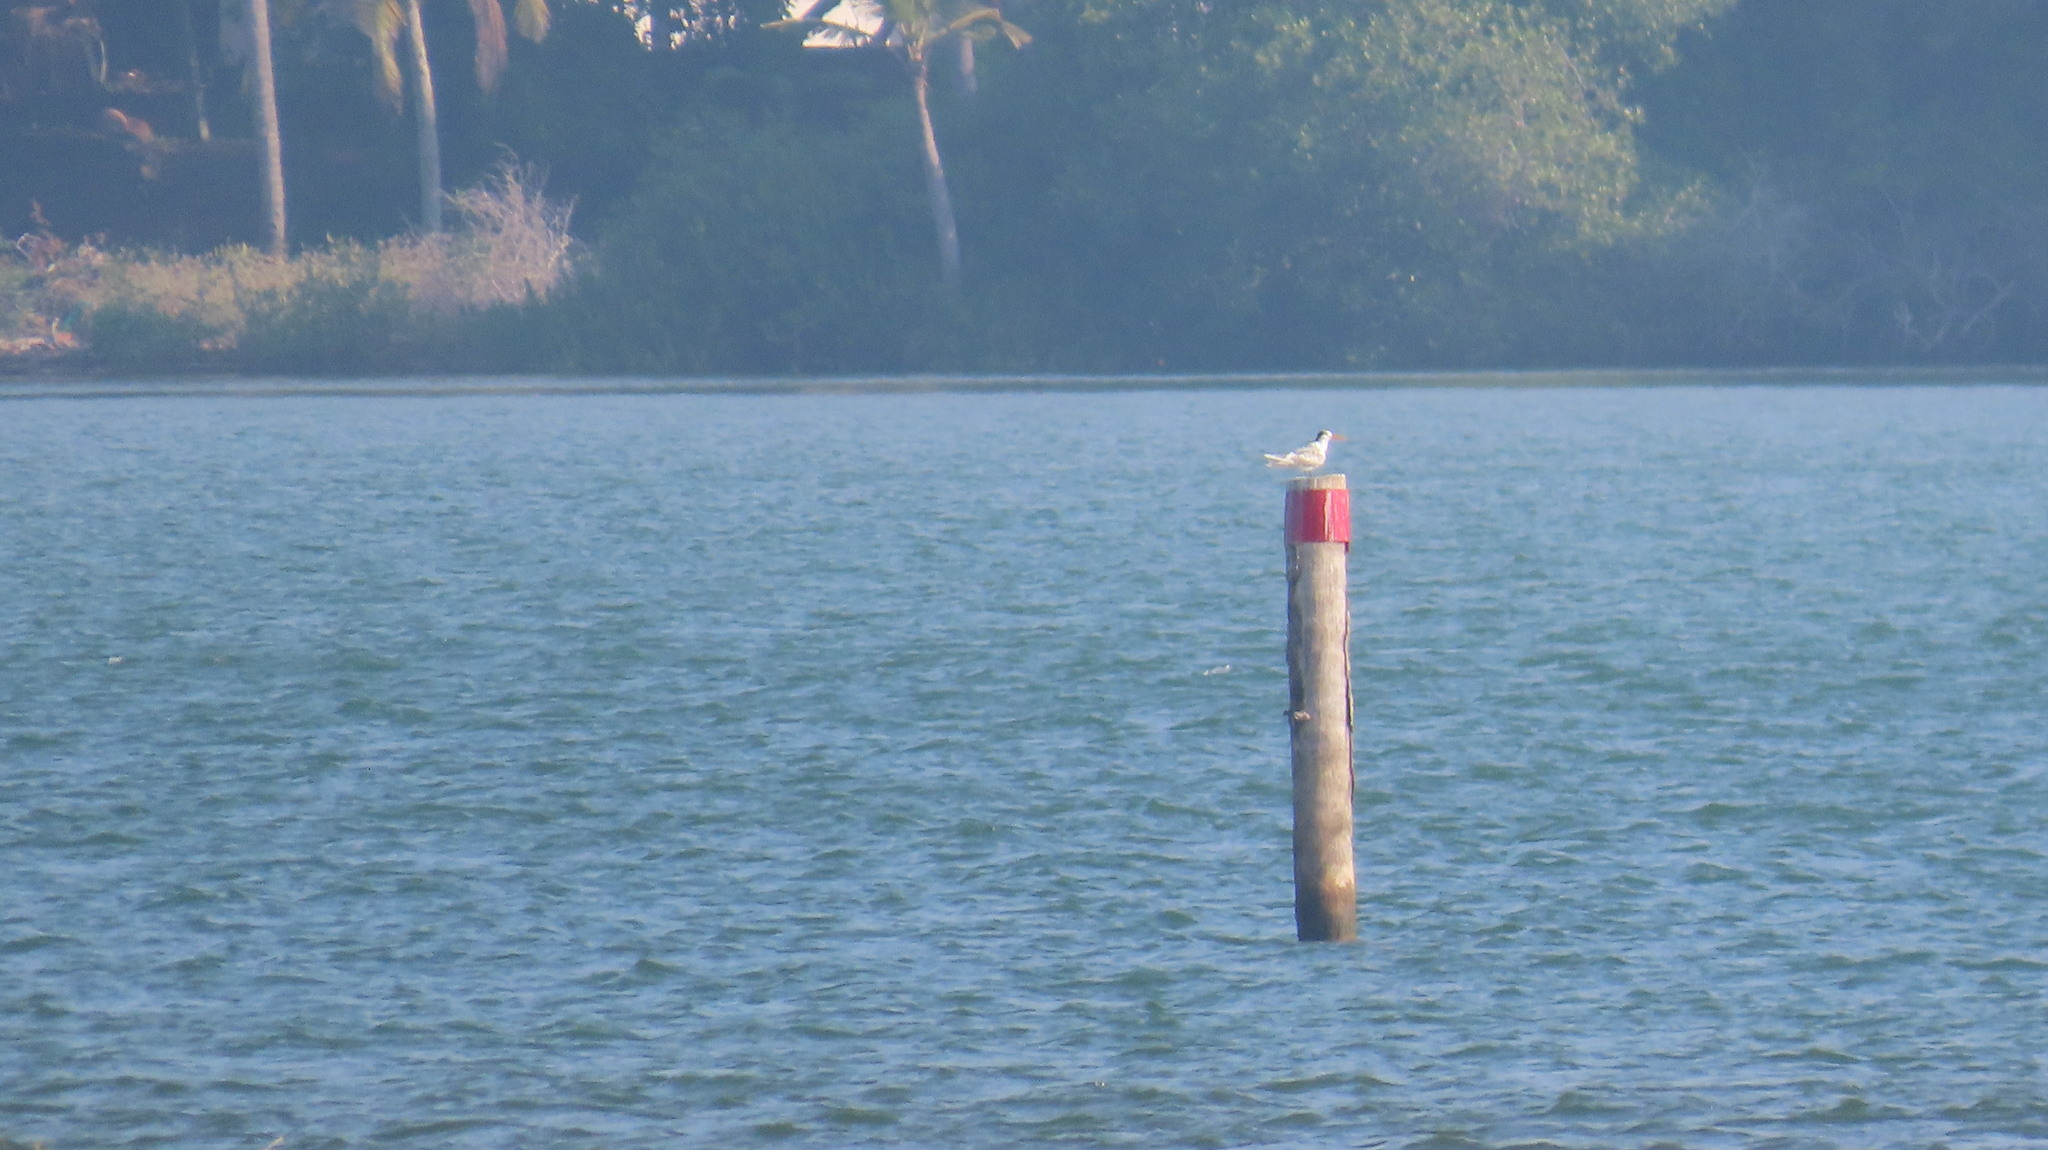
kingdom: Animalia
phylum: Chordata
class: Aves
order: Charadriiformes
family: Laridae
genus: Thalasseus
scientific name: Thalasseus bengalensis
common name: Lesser crested tern
